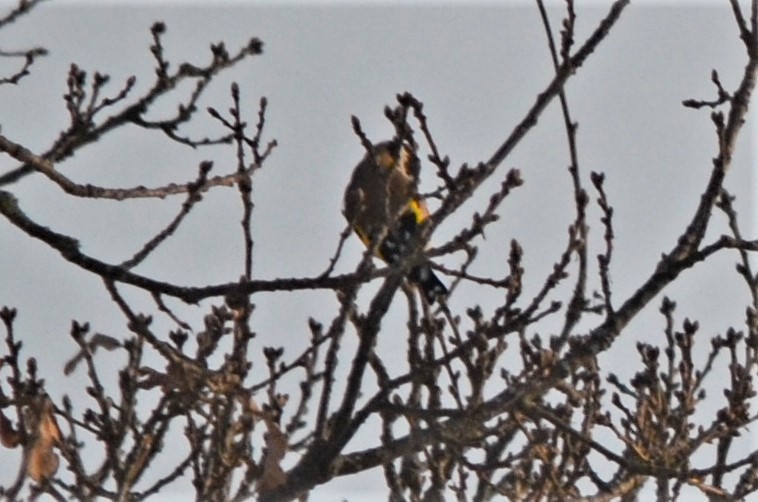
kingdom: Animalia
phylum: Chordata
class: Aves
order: Passeriformes
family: Fringillidae
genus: Carduelis
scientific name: Carduelis carduelis
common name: European goldfinch
